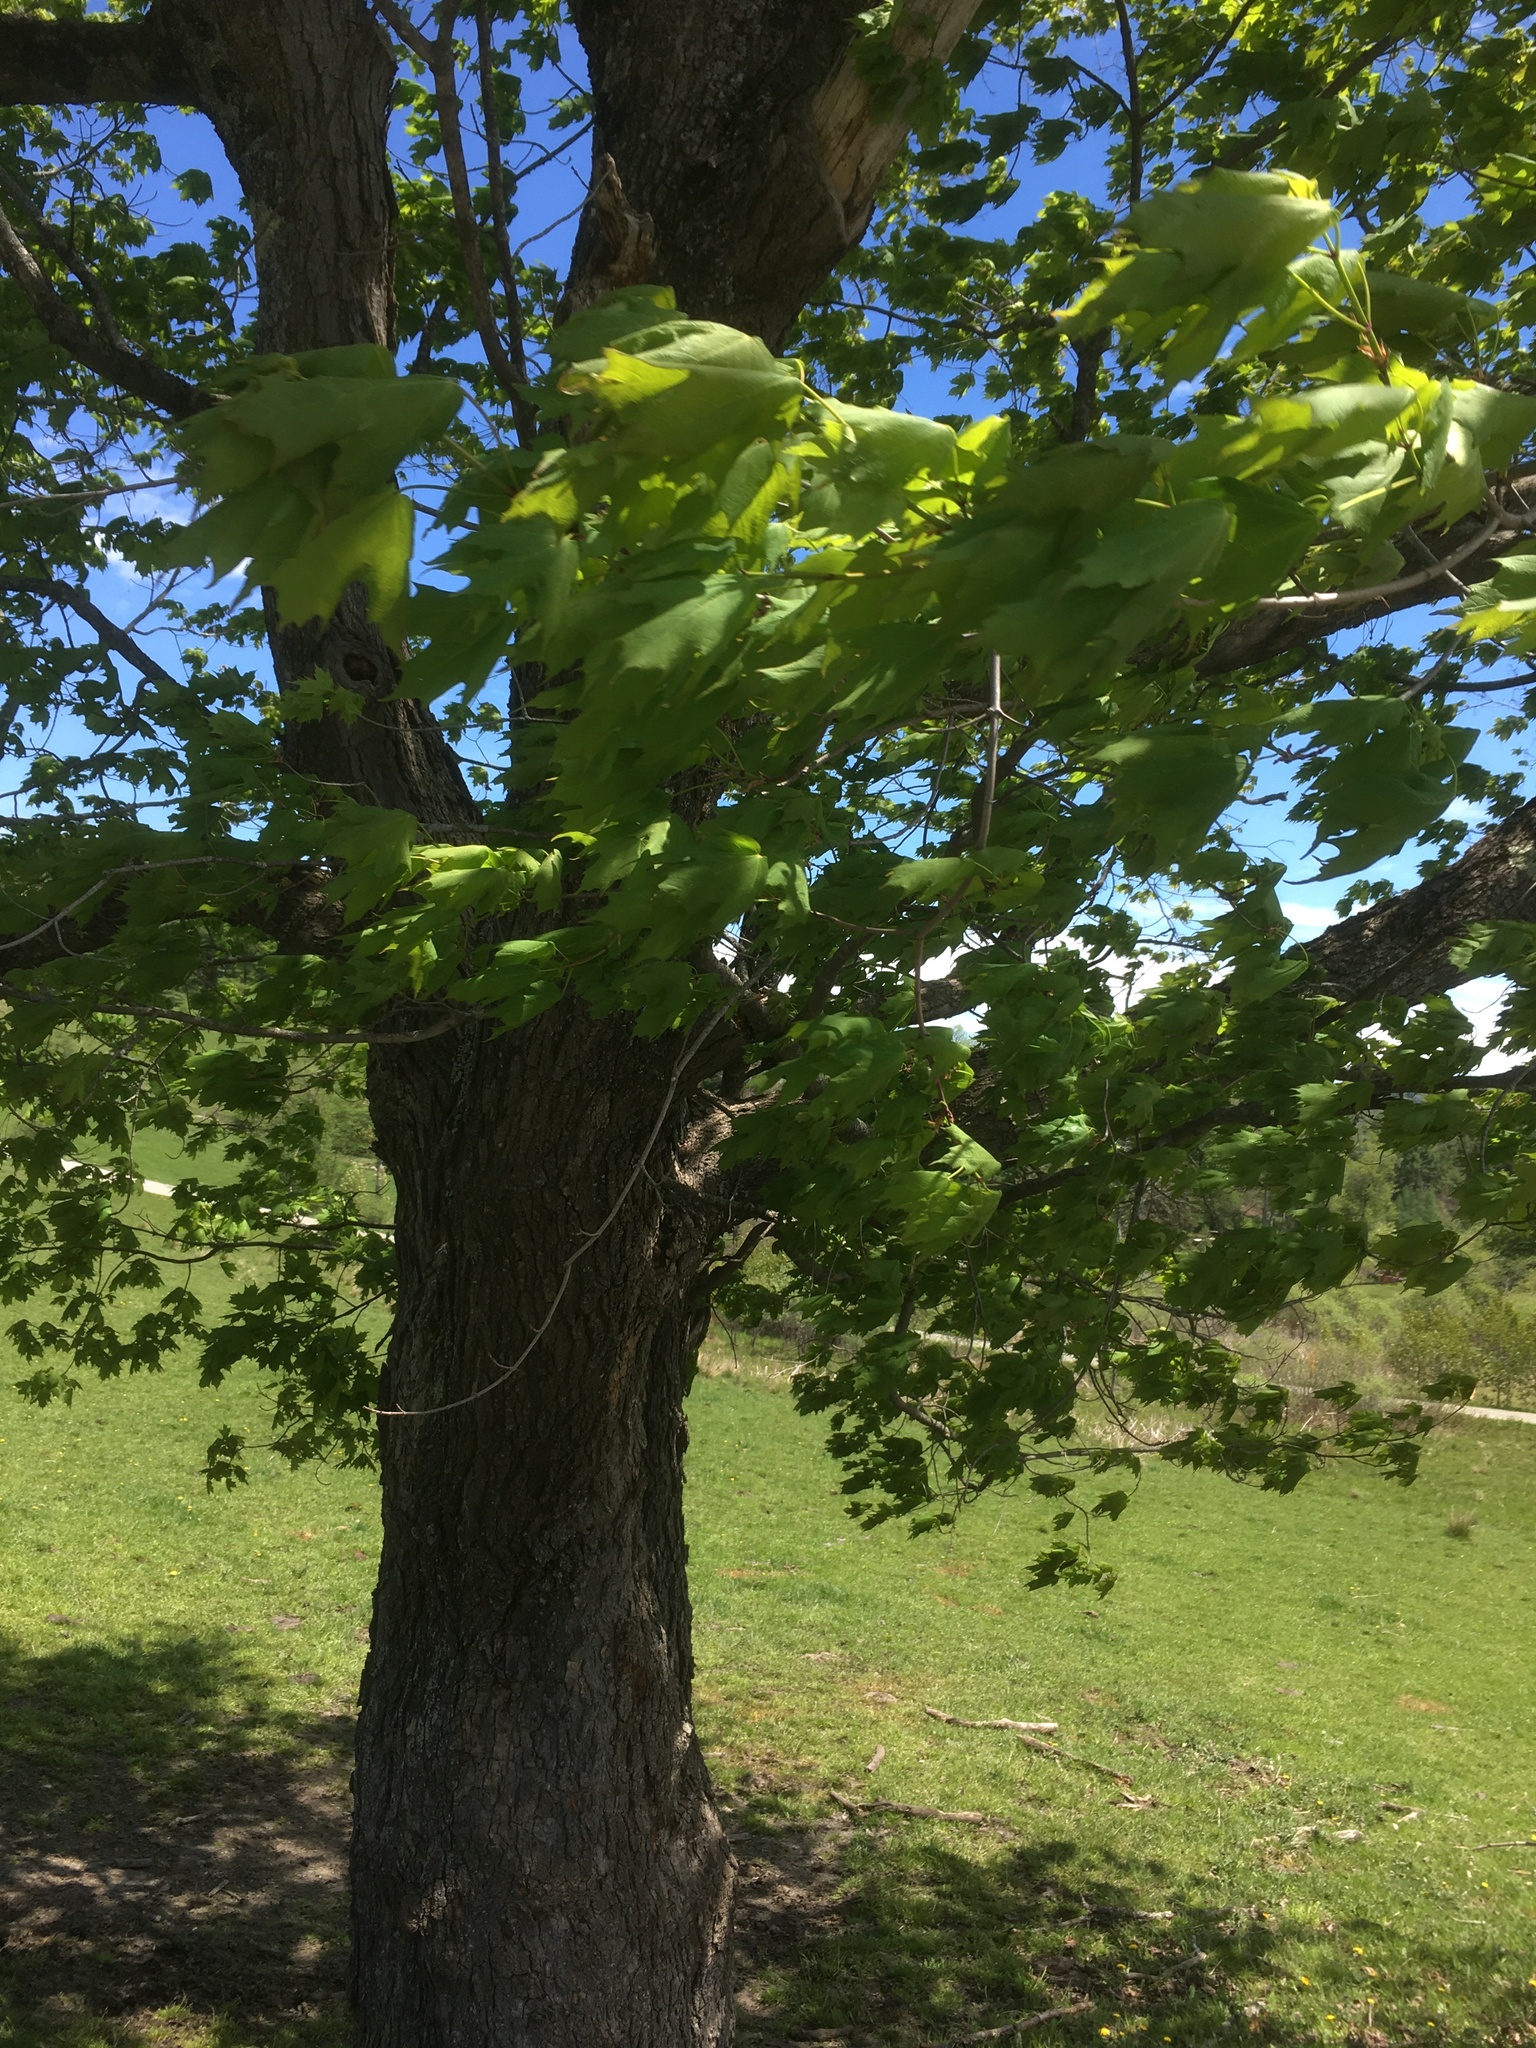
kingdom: Plantae
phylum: Tracheophyta
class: Magnoliopsida
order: Sapindales
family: Sapindaceae
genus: Acer
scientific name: Acer saccharum
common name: Sugar maple
